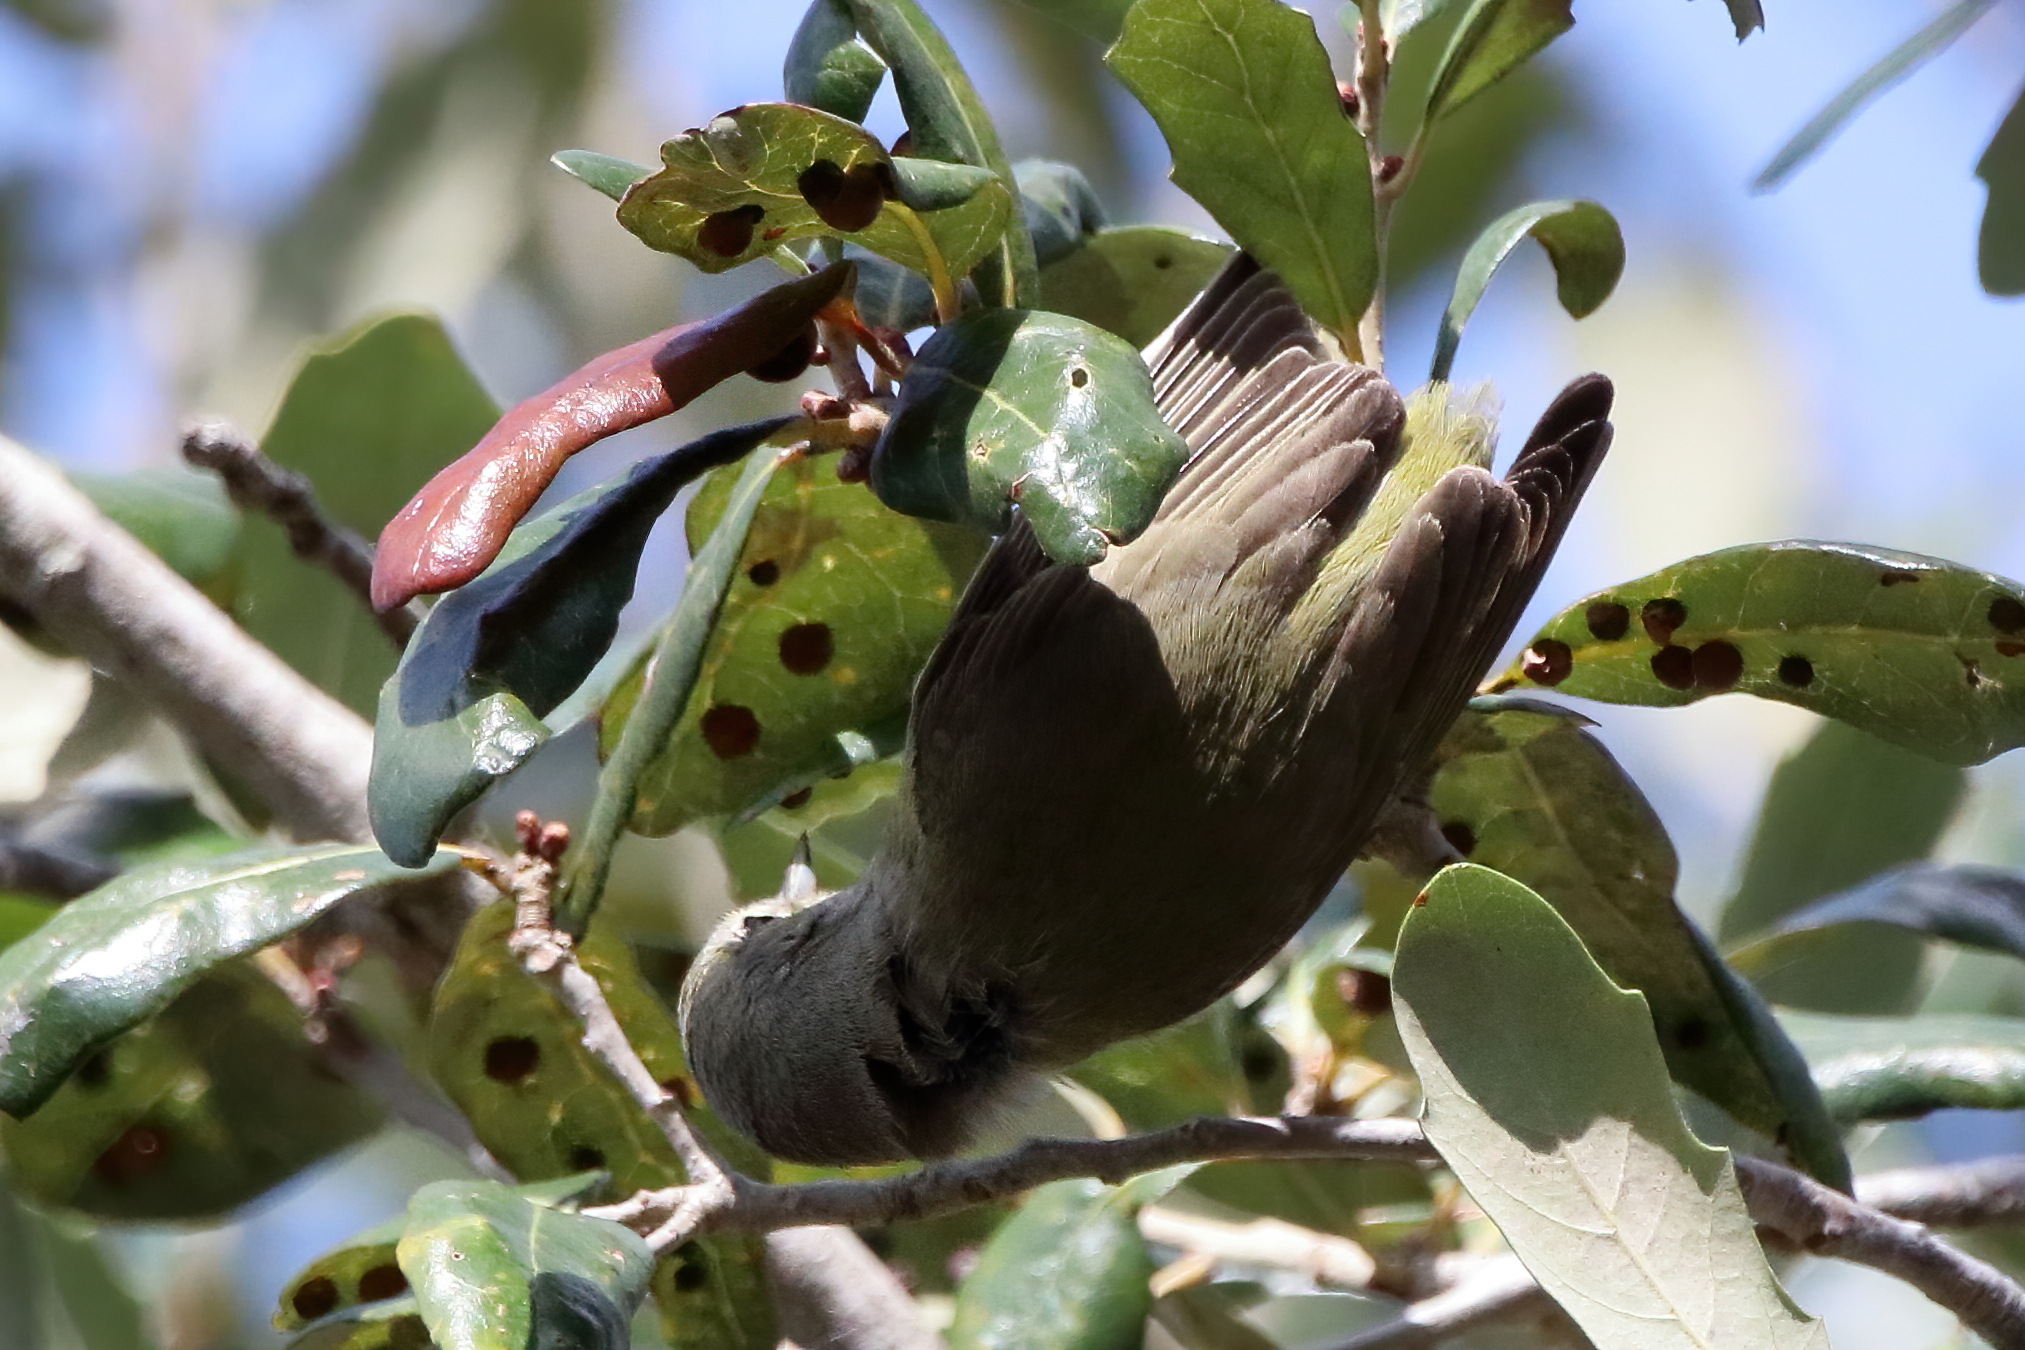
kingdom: Animalia
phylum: Chordata
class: Aves
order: Passeriformes
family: Parulidae
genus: Leiothlypis
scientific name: Leiothlypis celata
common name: Orange-crowned warbler
